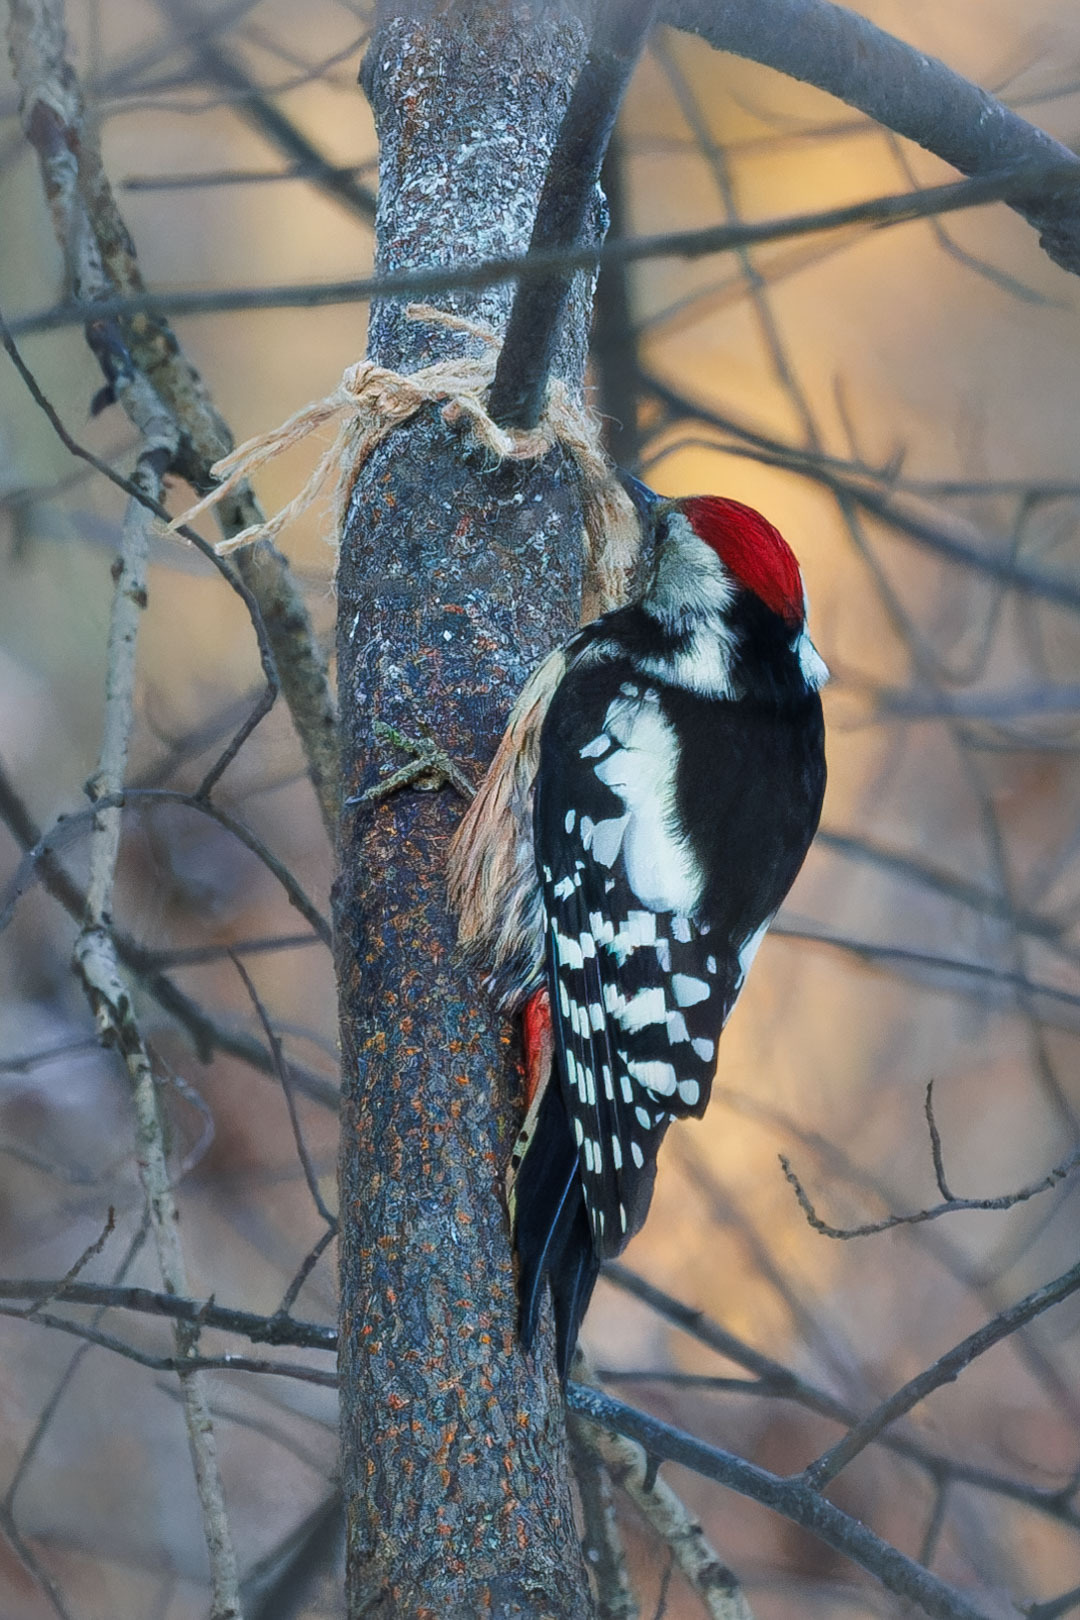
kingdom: Animalia
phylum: Chordata
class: Aves
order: Piciformes
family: Picidae
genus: Dendrocoptes
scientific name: Dendrocoptes medius
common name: Middle spotted woodpecker
